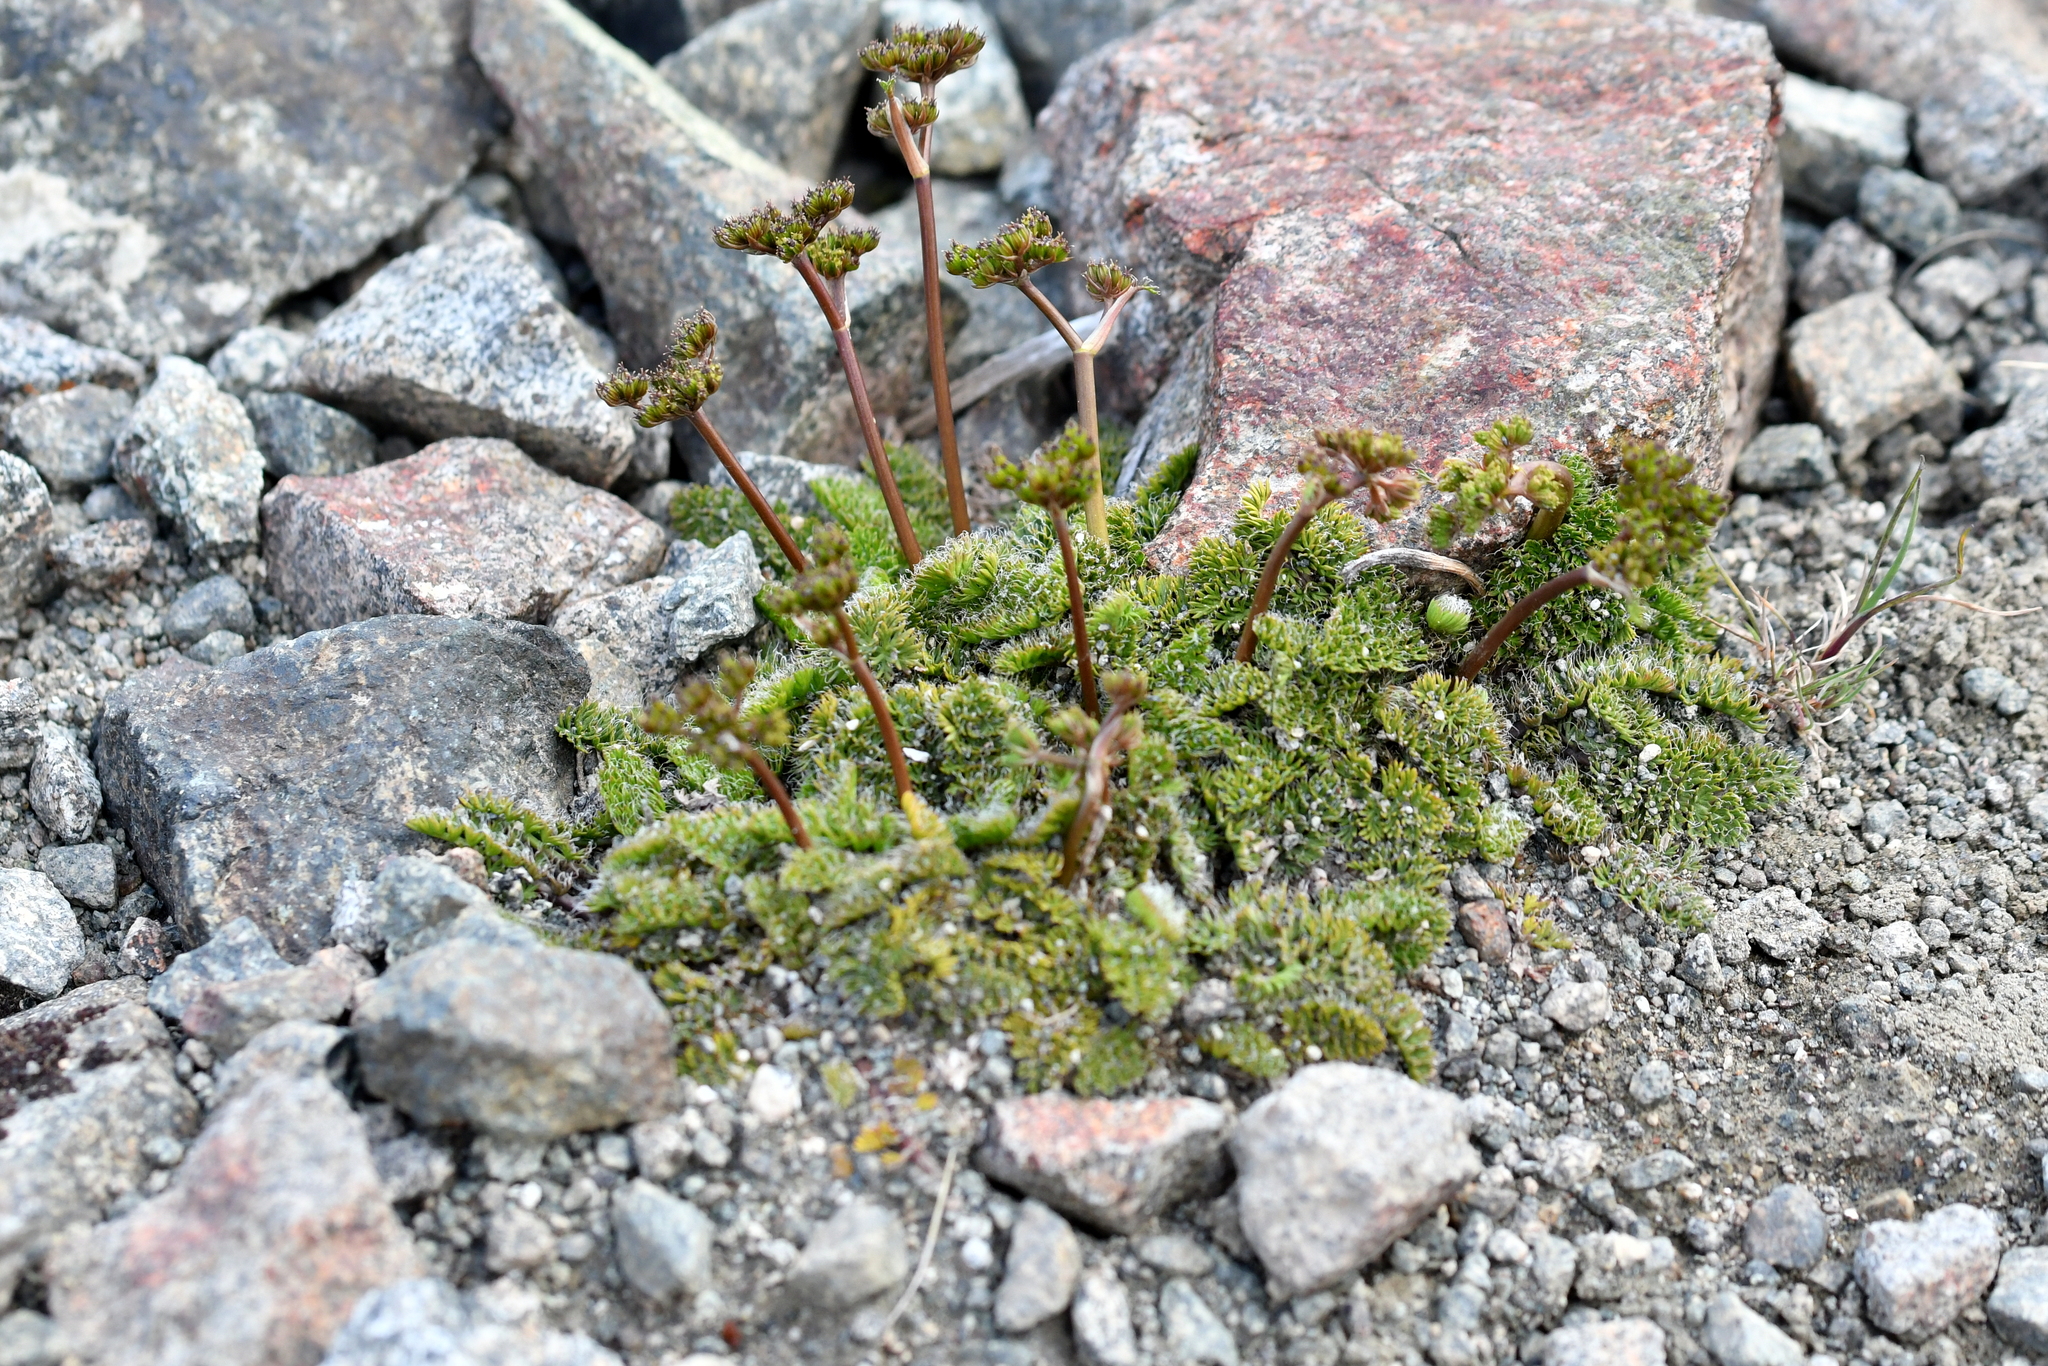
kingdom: Plantae
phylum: Tracheophyta
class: Magnoliopsida
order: Apiales
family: Apiaceae
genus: Anisotome
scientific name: Anisotome flexuosa
